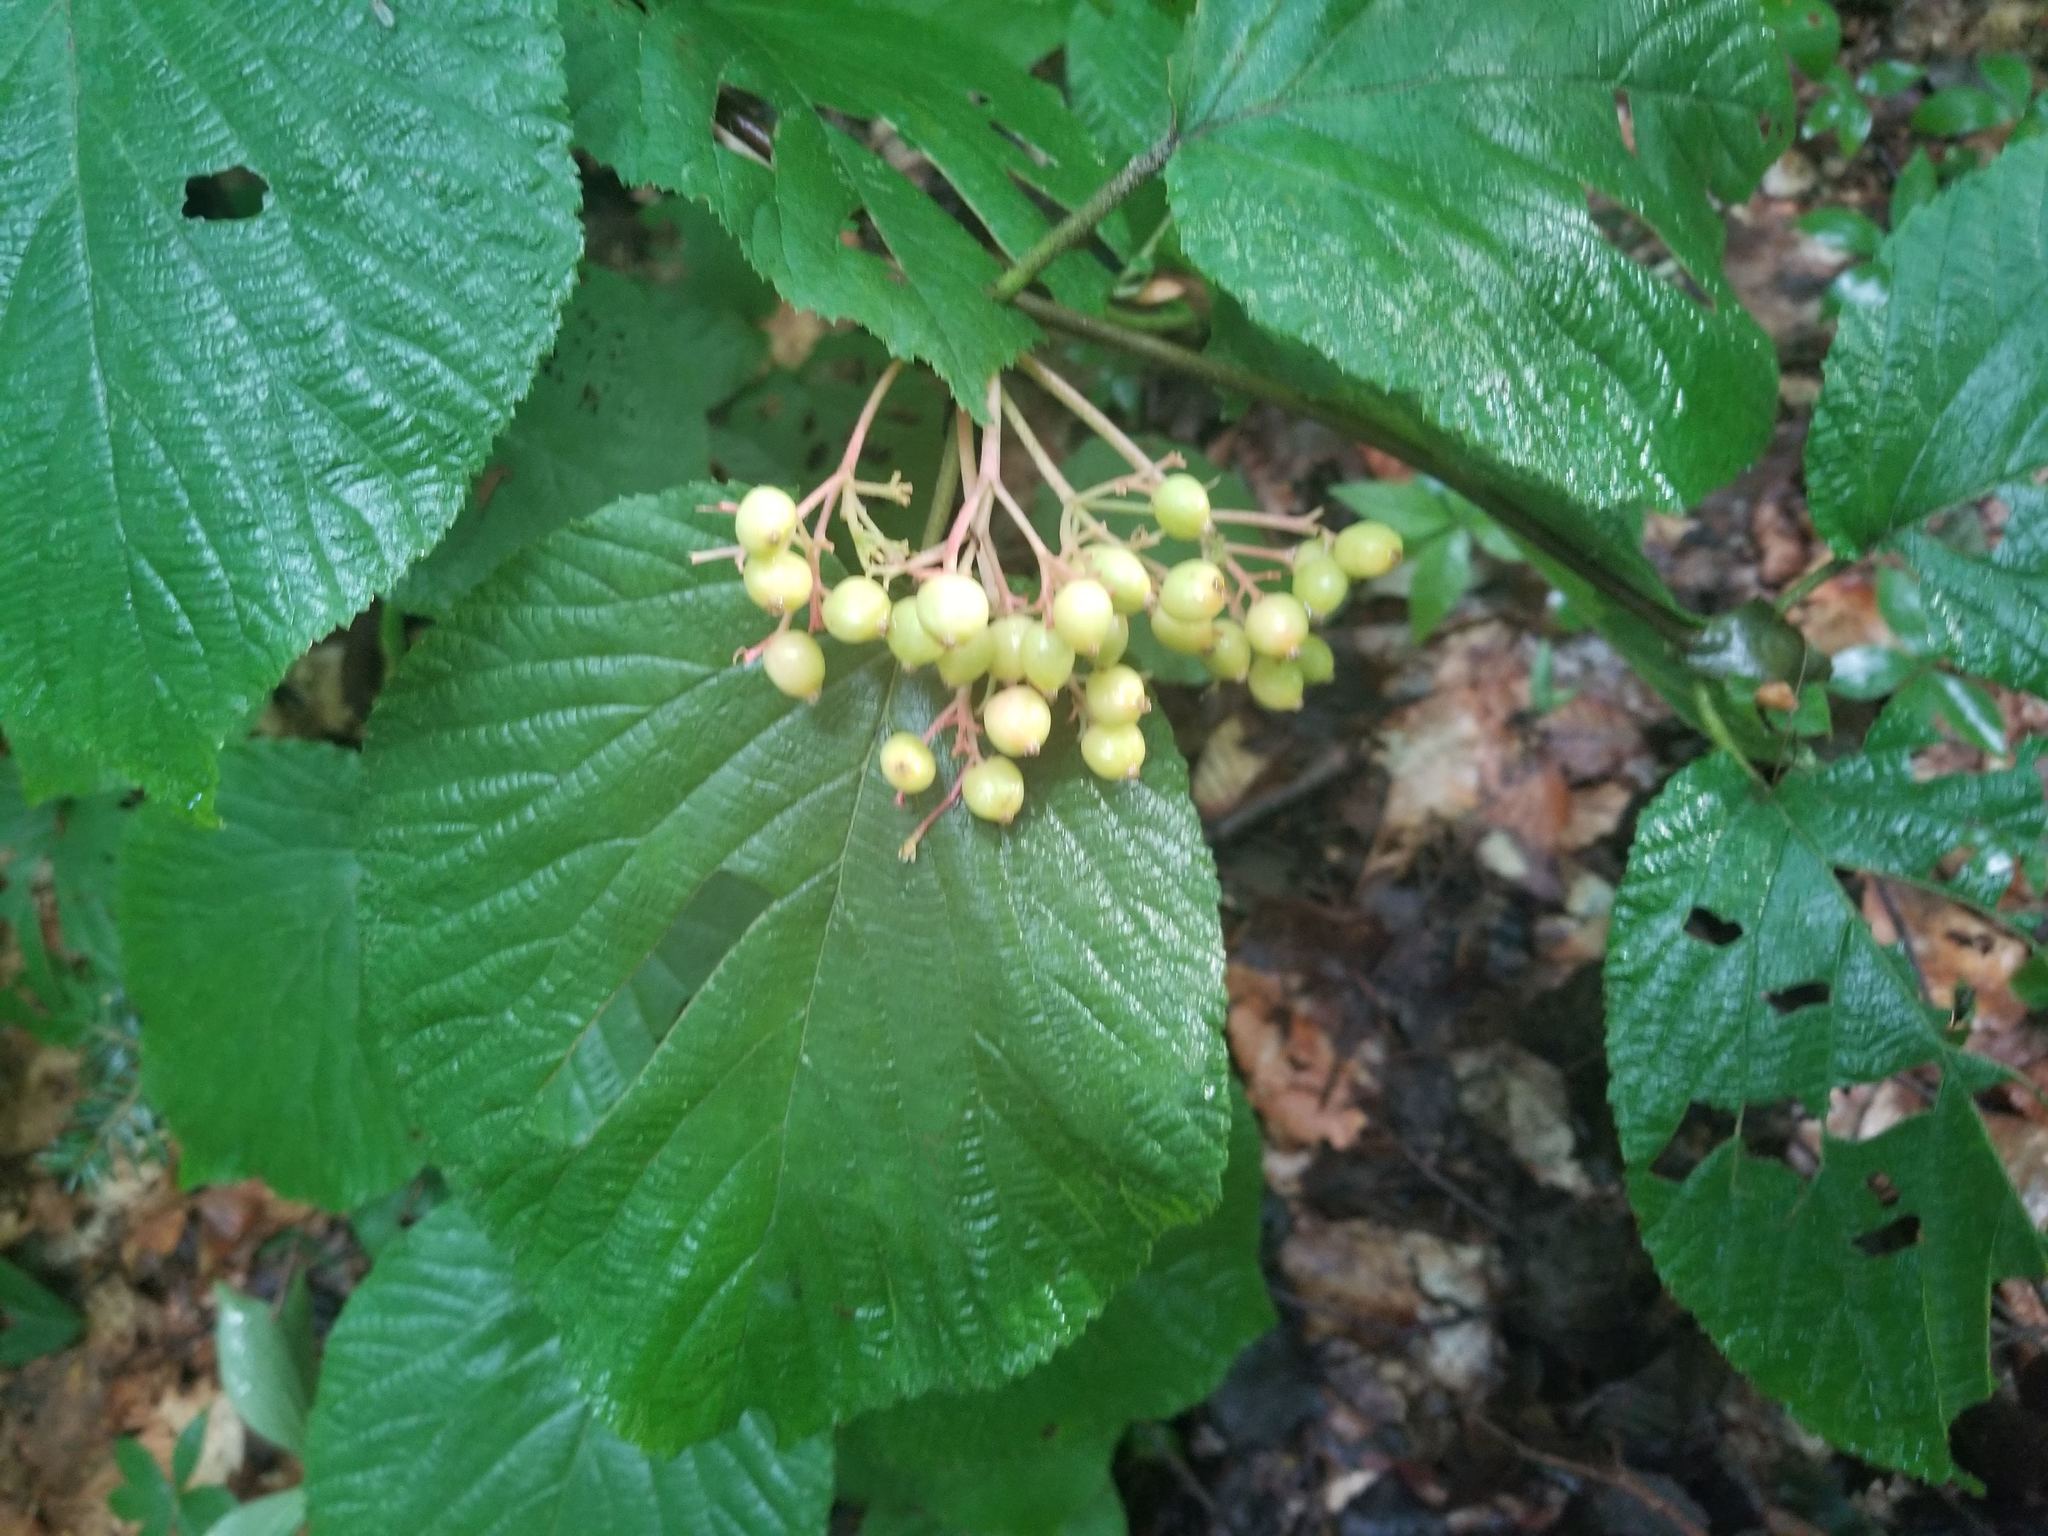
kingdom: Plantae
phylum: Tracheophyta
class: Magnoliopsida
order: Dipsacales
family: Viburnaceae
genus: Viburnum
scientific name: Viburnum lantanoides
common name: Hobblebush
